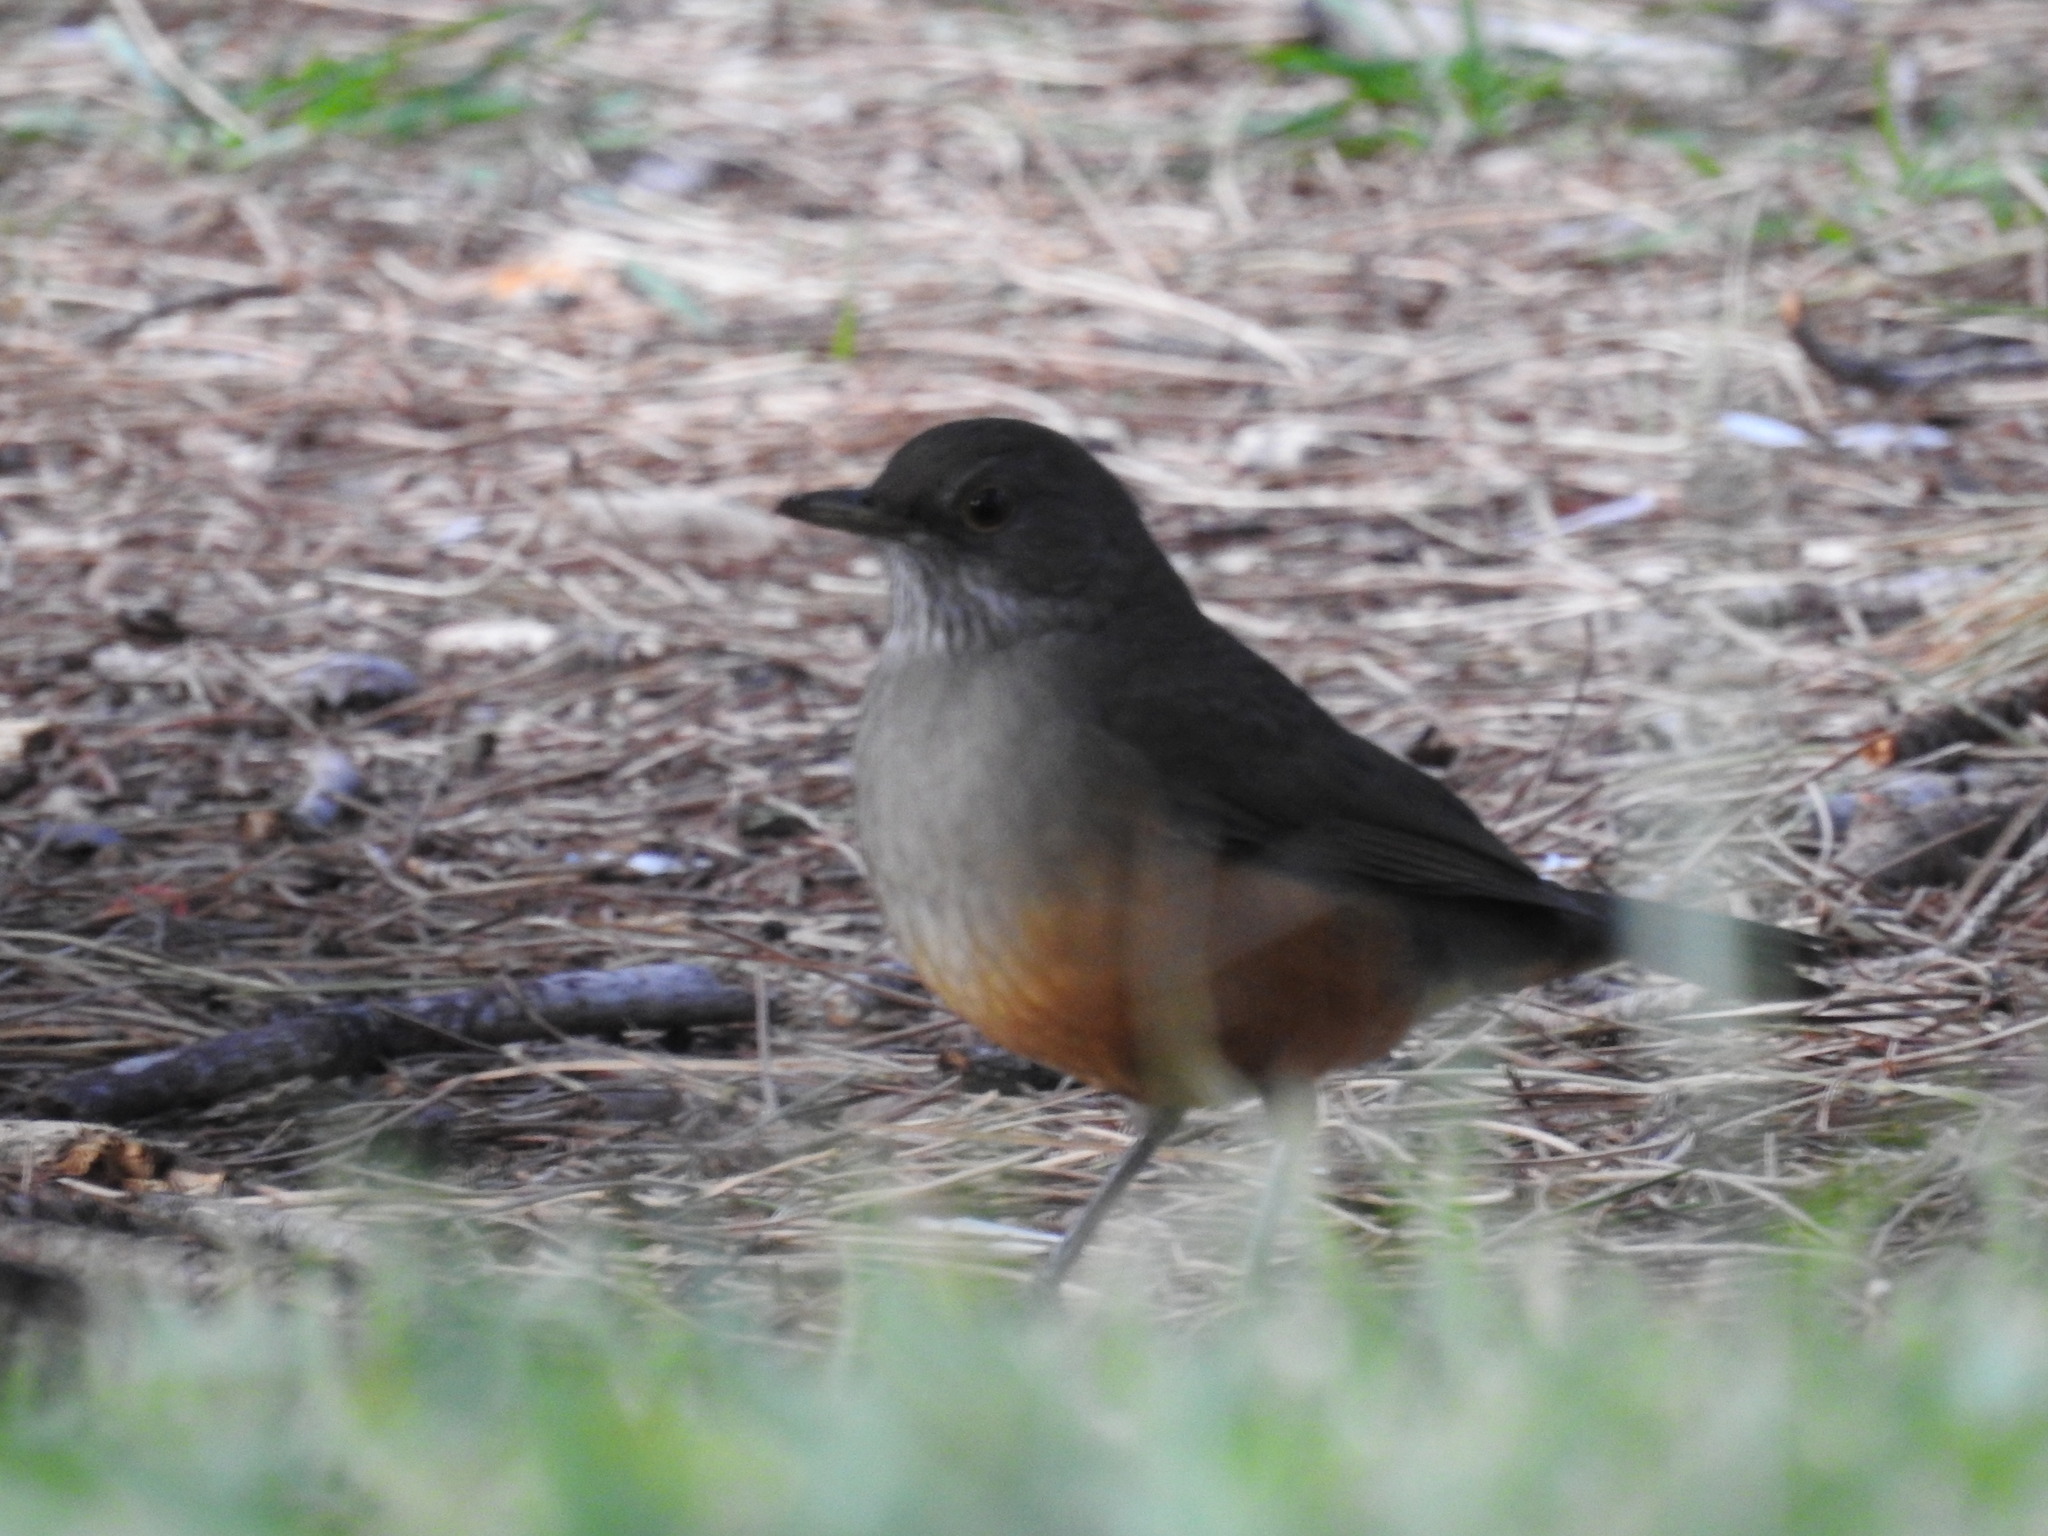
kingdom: Animalia
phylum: Chordata
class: Aves
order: Passeriformes
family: Turdidae
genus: Turdus
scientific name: Turdus rufiventris
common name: Rufous-bellied thrush
